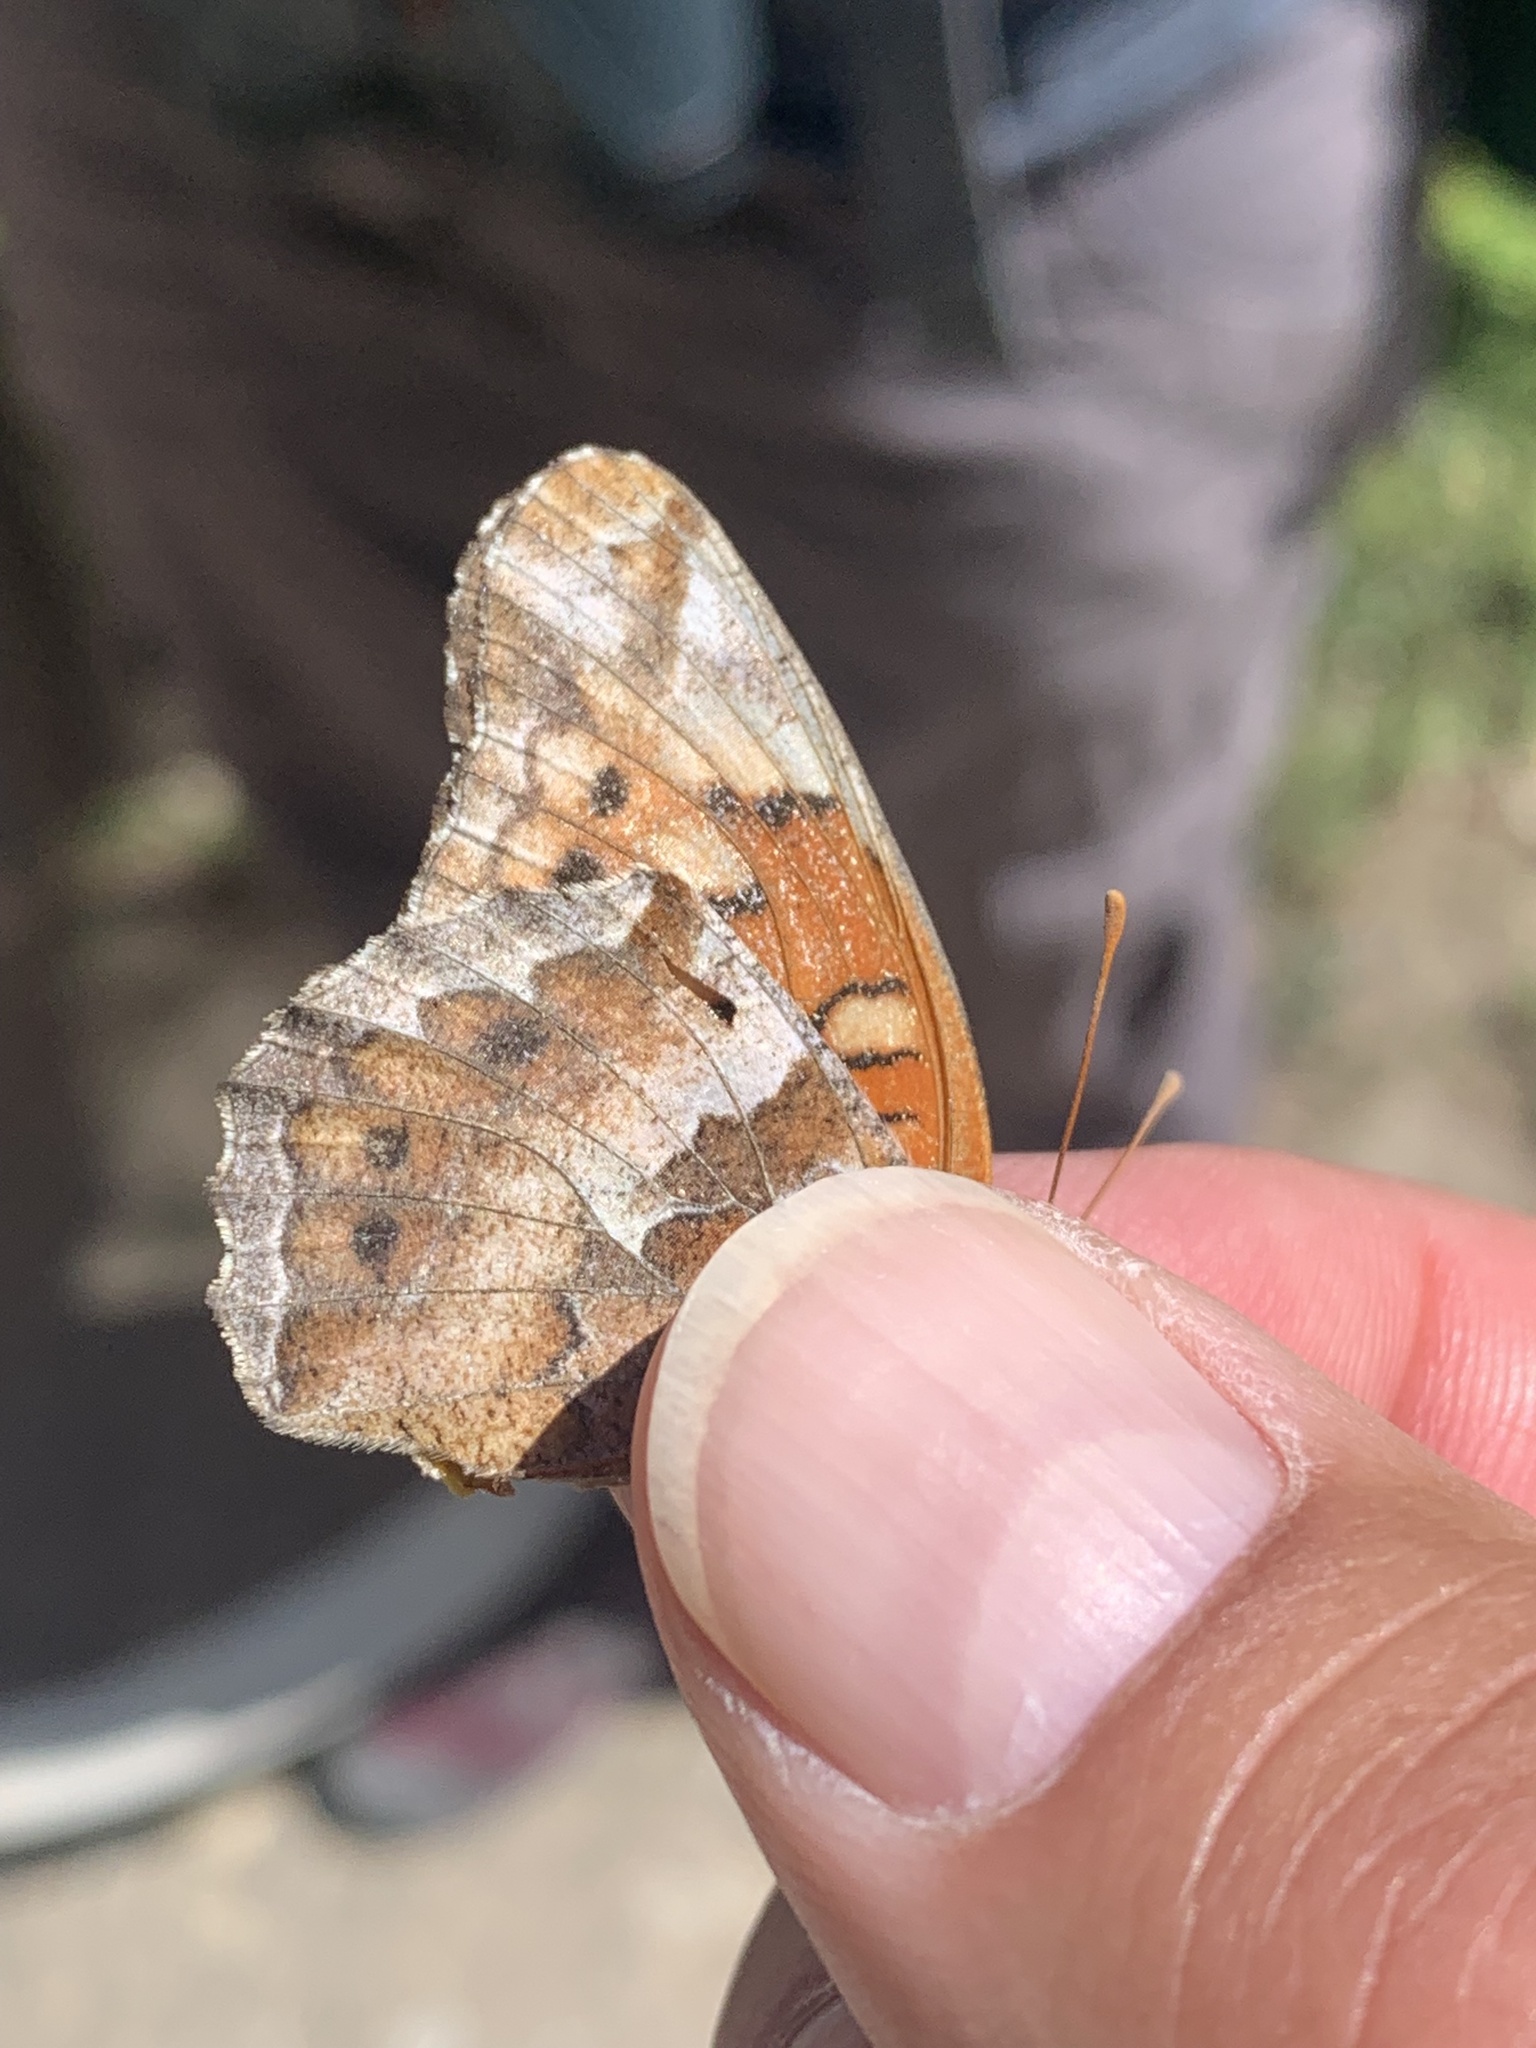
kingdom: Animalia
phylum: Arthropoda
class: Insecta
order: Lepidoptera
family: Nymphalidae
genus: Euptoieta
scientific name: Euptoieta claudia
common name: Variegated fritillary
